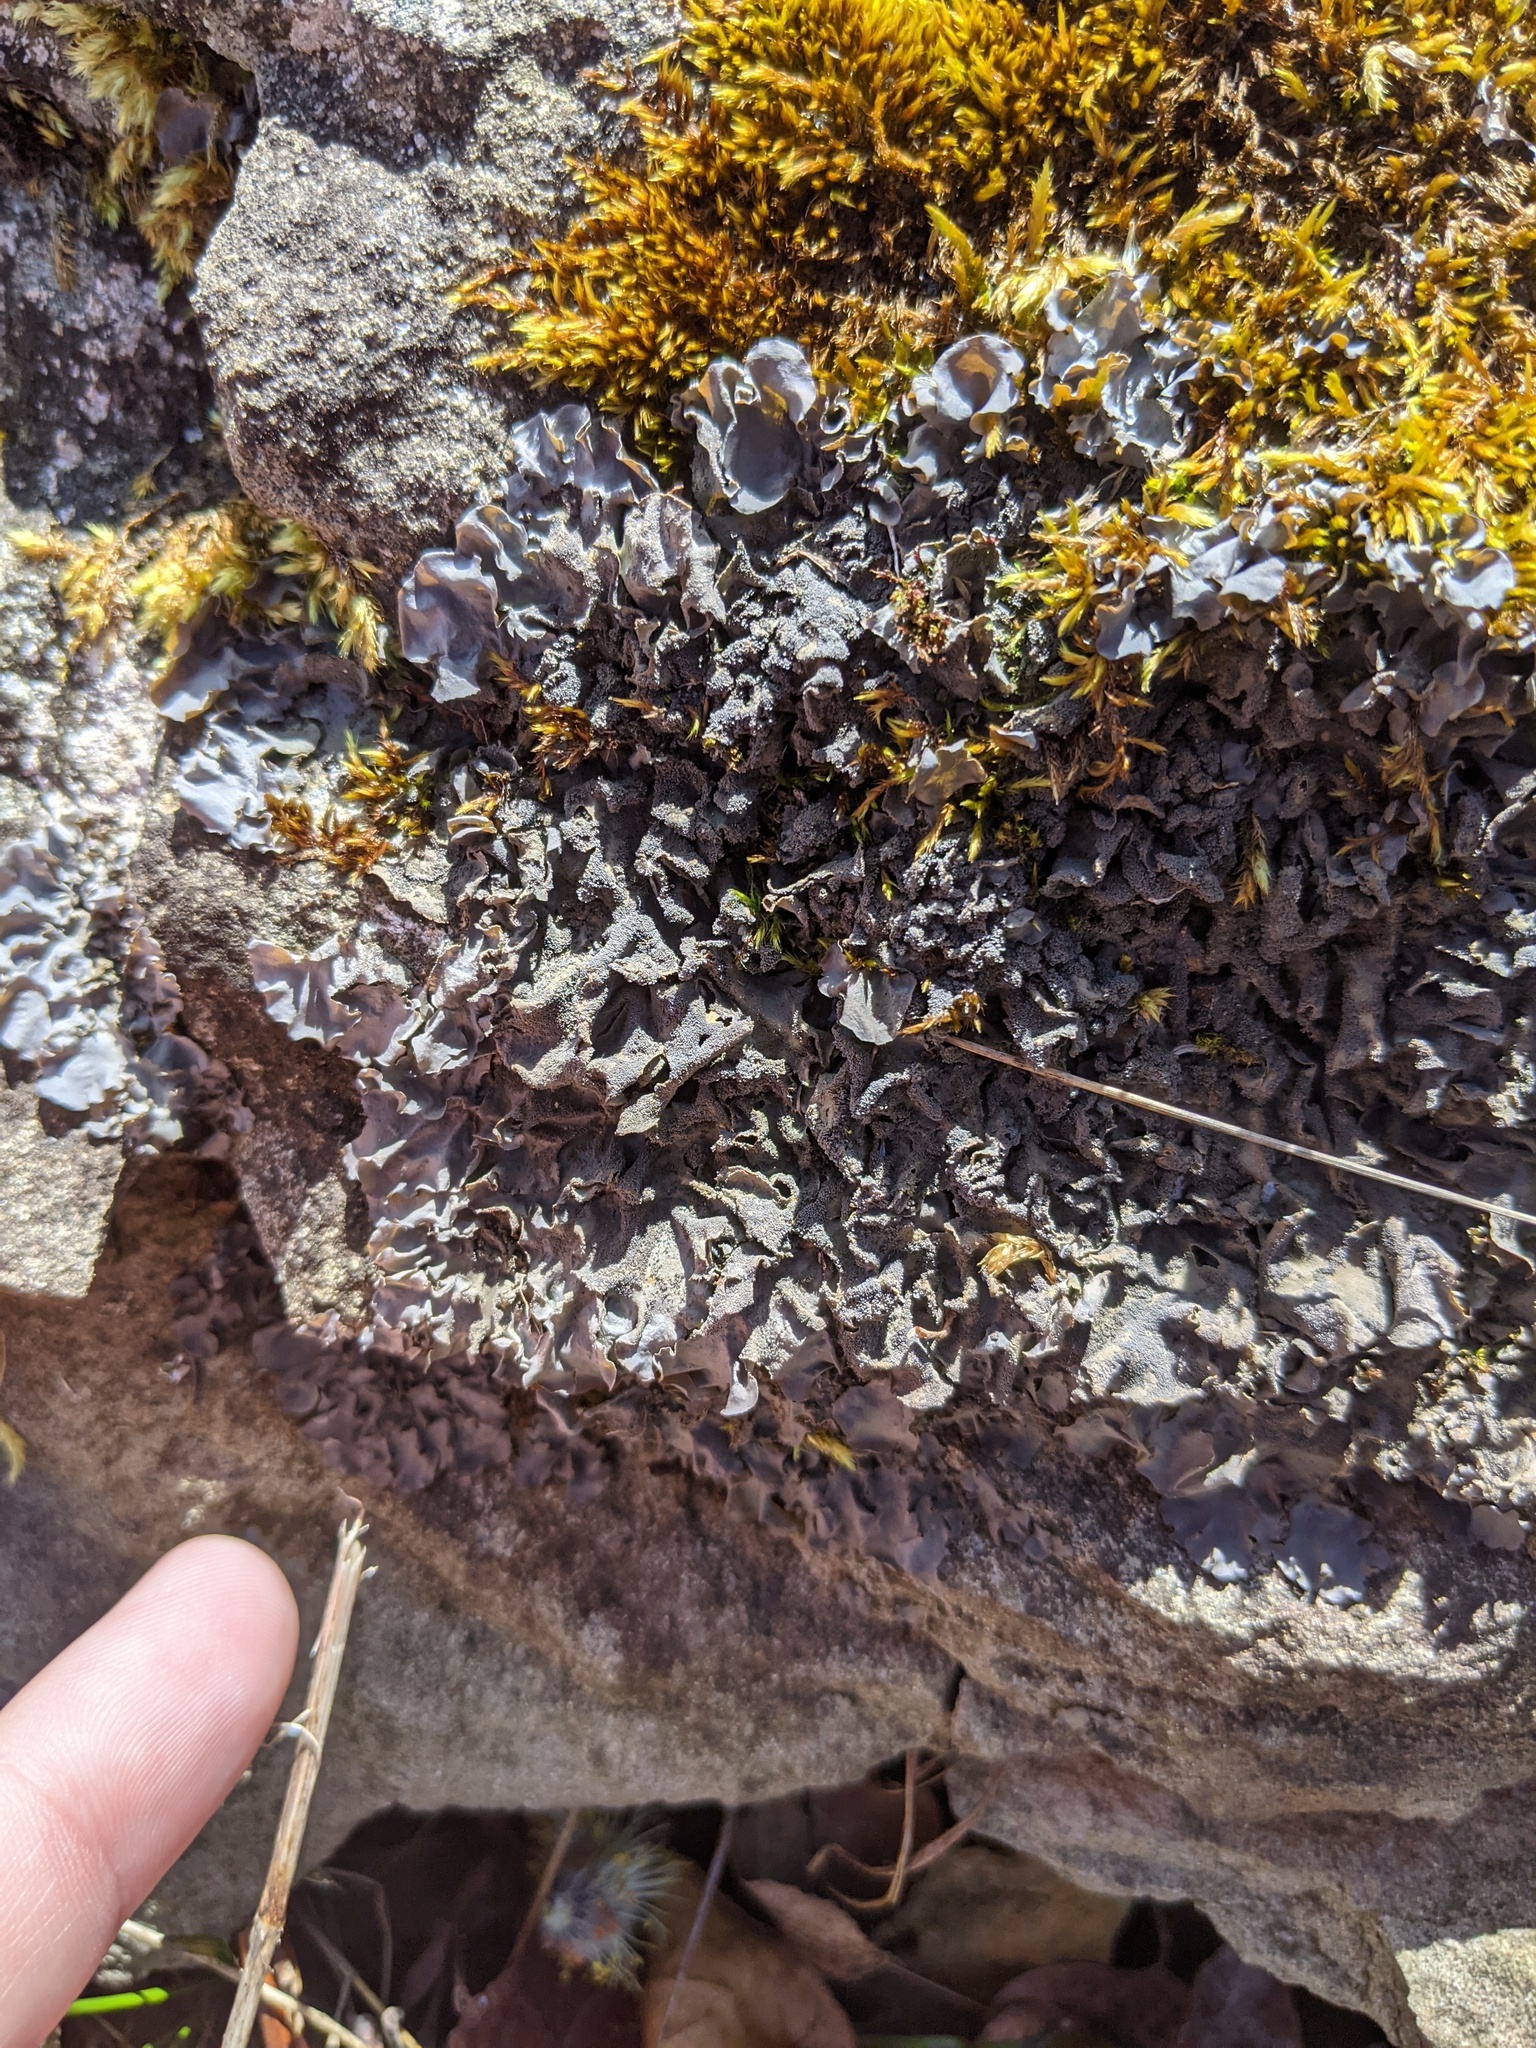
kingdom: Fungi
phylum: Ascomycota
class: Lecanoromycetes
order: Peltigerales
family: Collemataceae
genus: Leptogium
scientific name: Leptogium cyanescens
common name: Blue jellyskin
